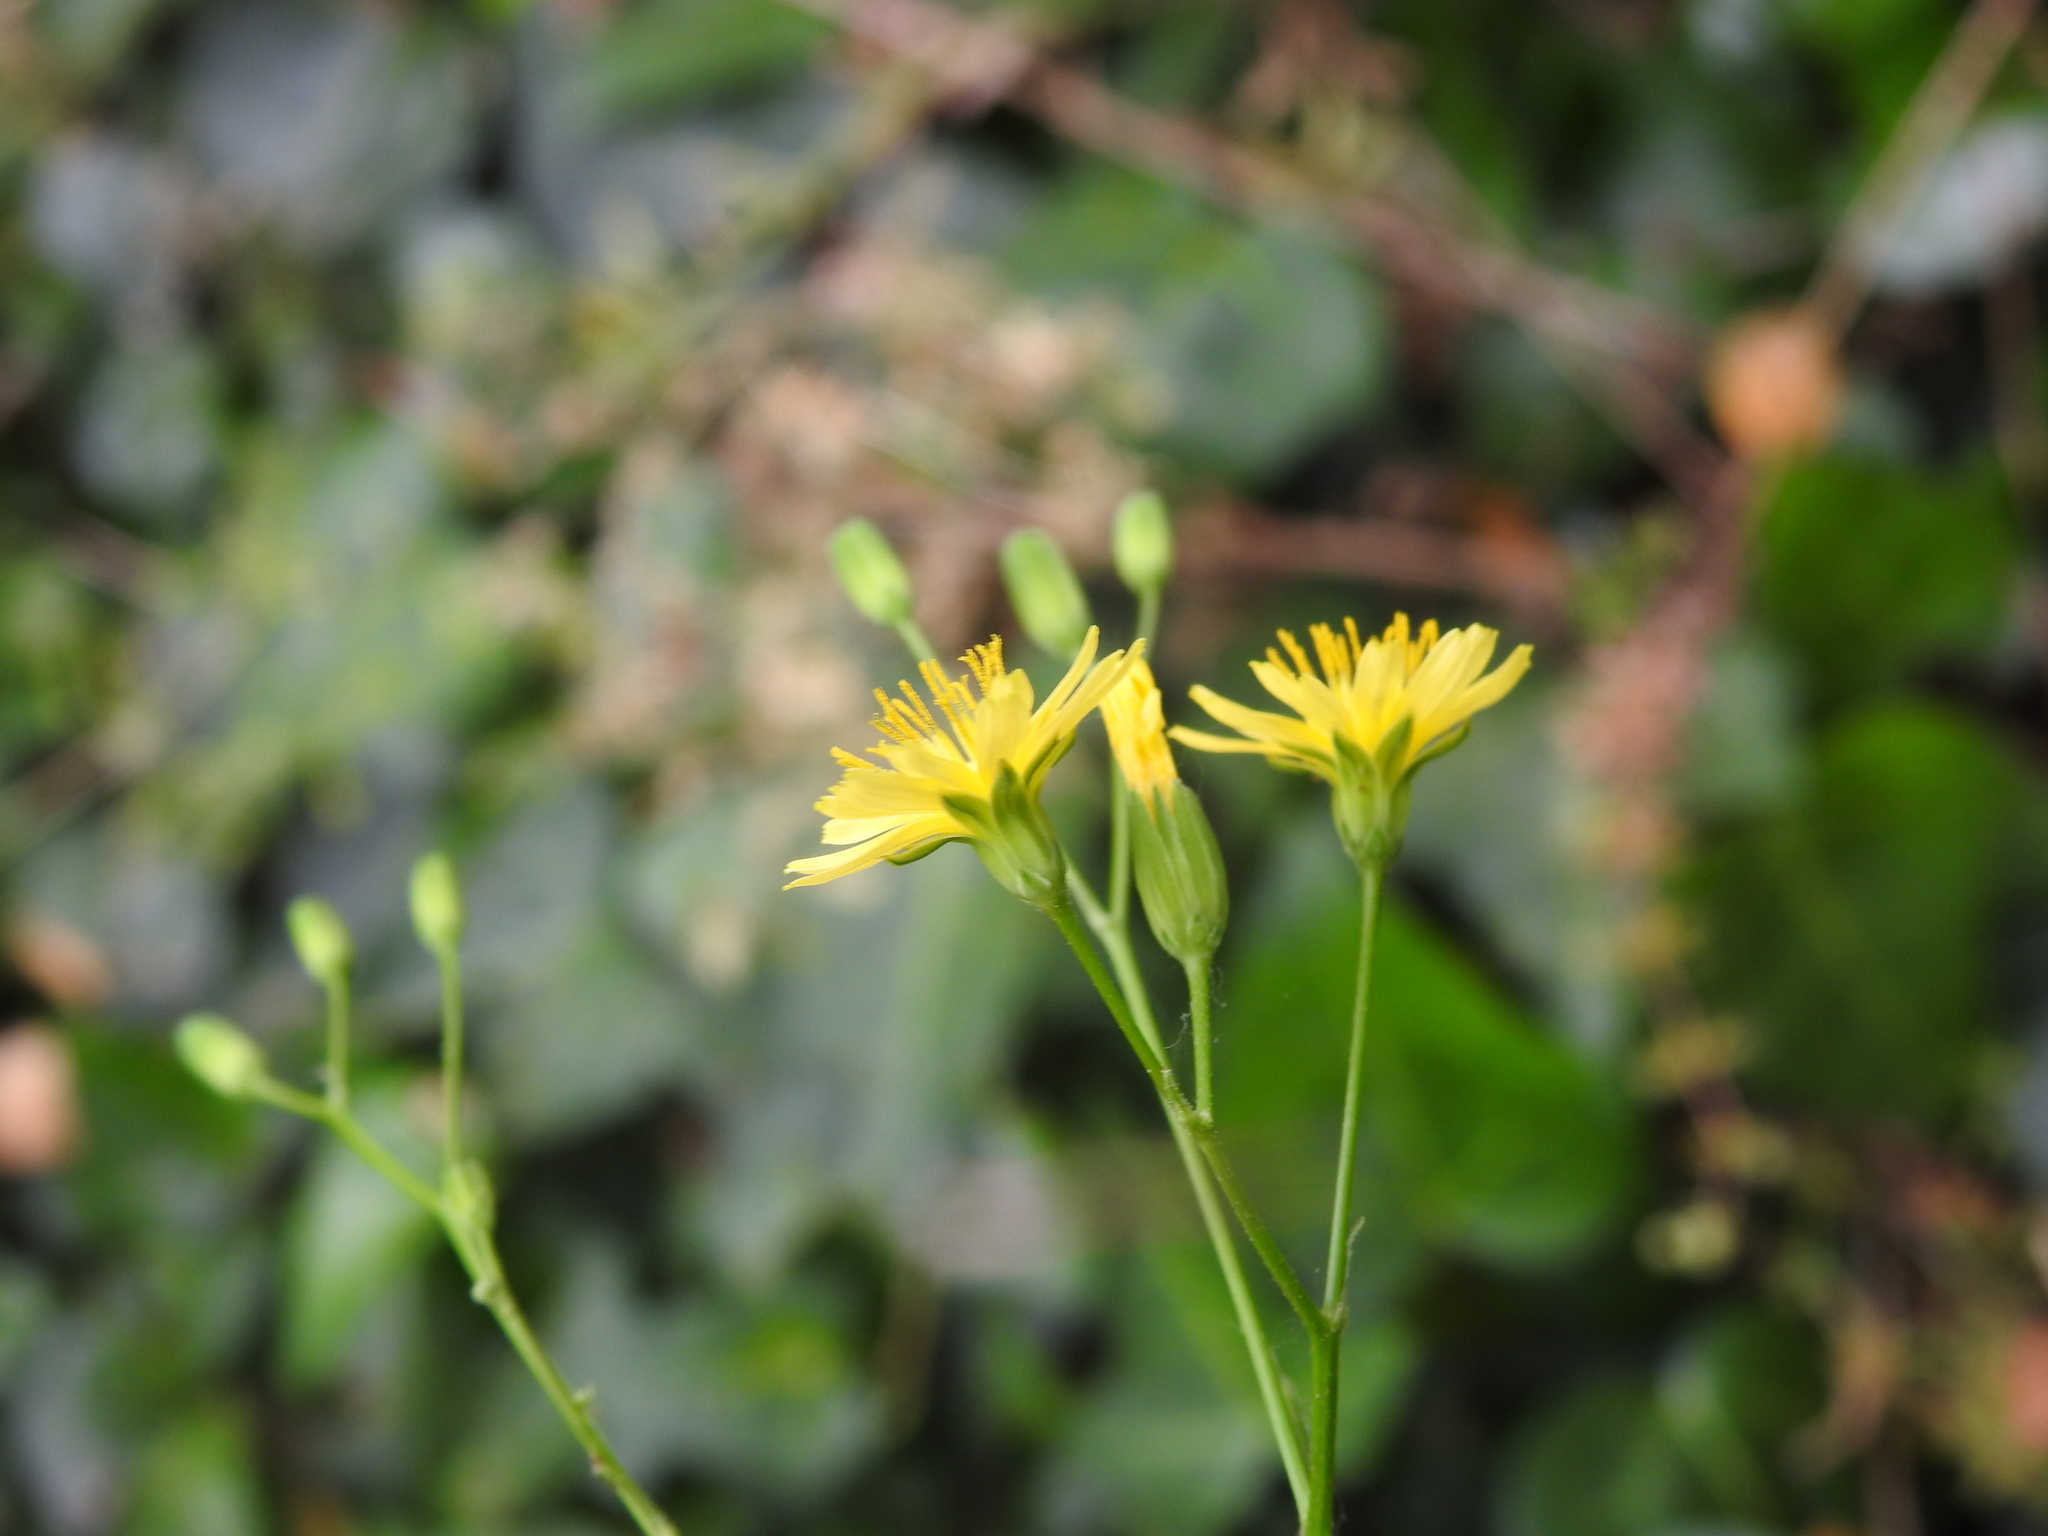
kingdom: Plantae
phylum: Tracheophyta
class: Magnoliopsida
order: Asterales
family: Asteraceae
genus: Lapsana
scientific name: Lapsana communis
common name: Nipplewort
